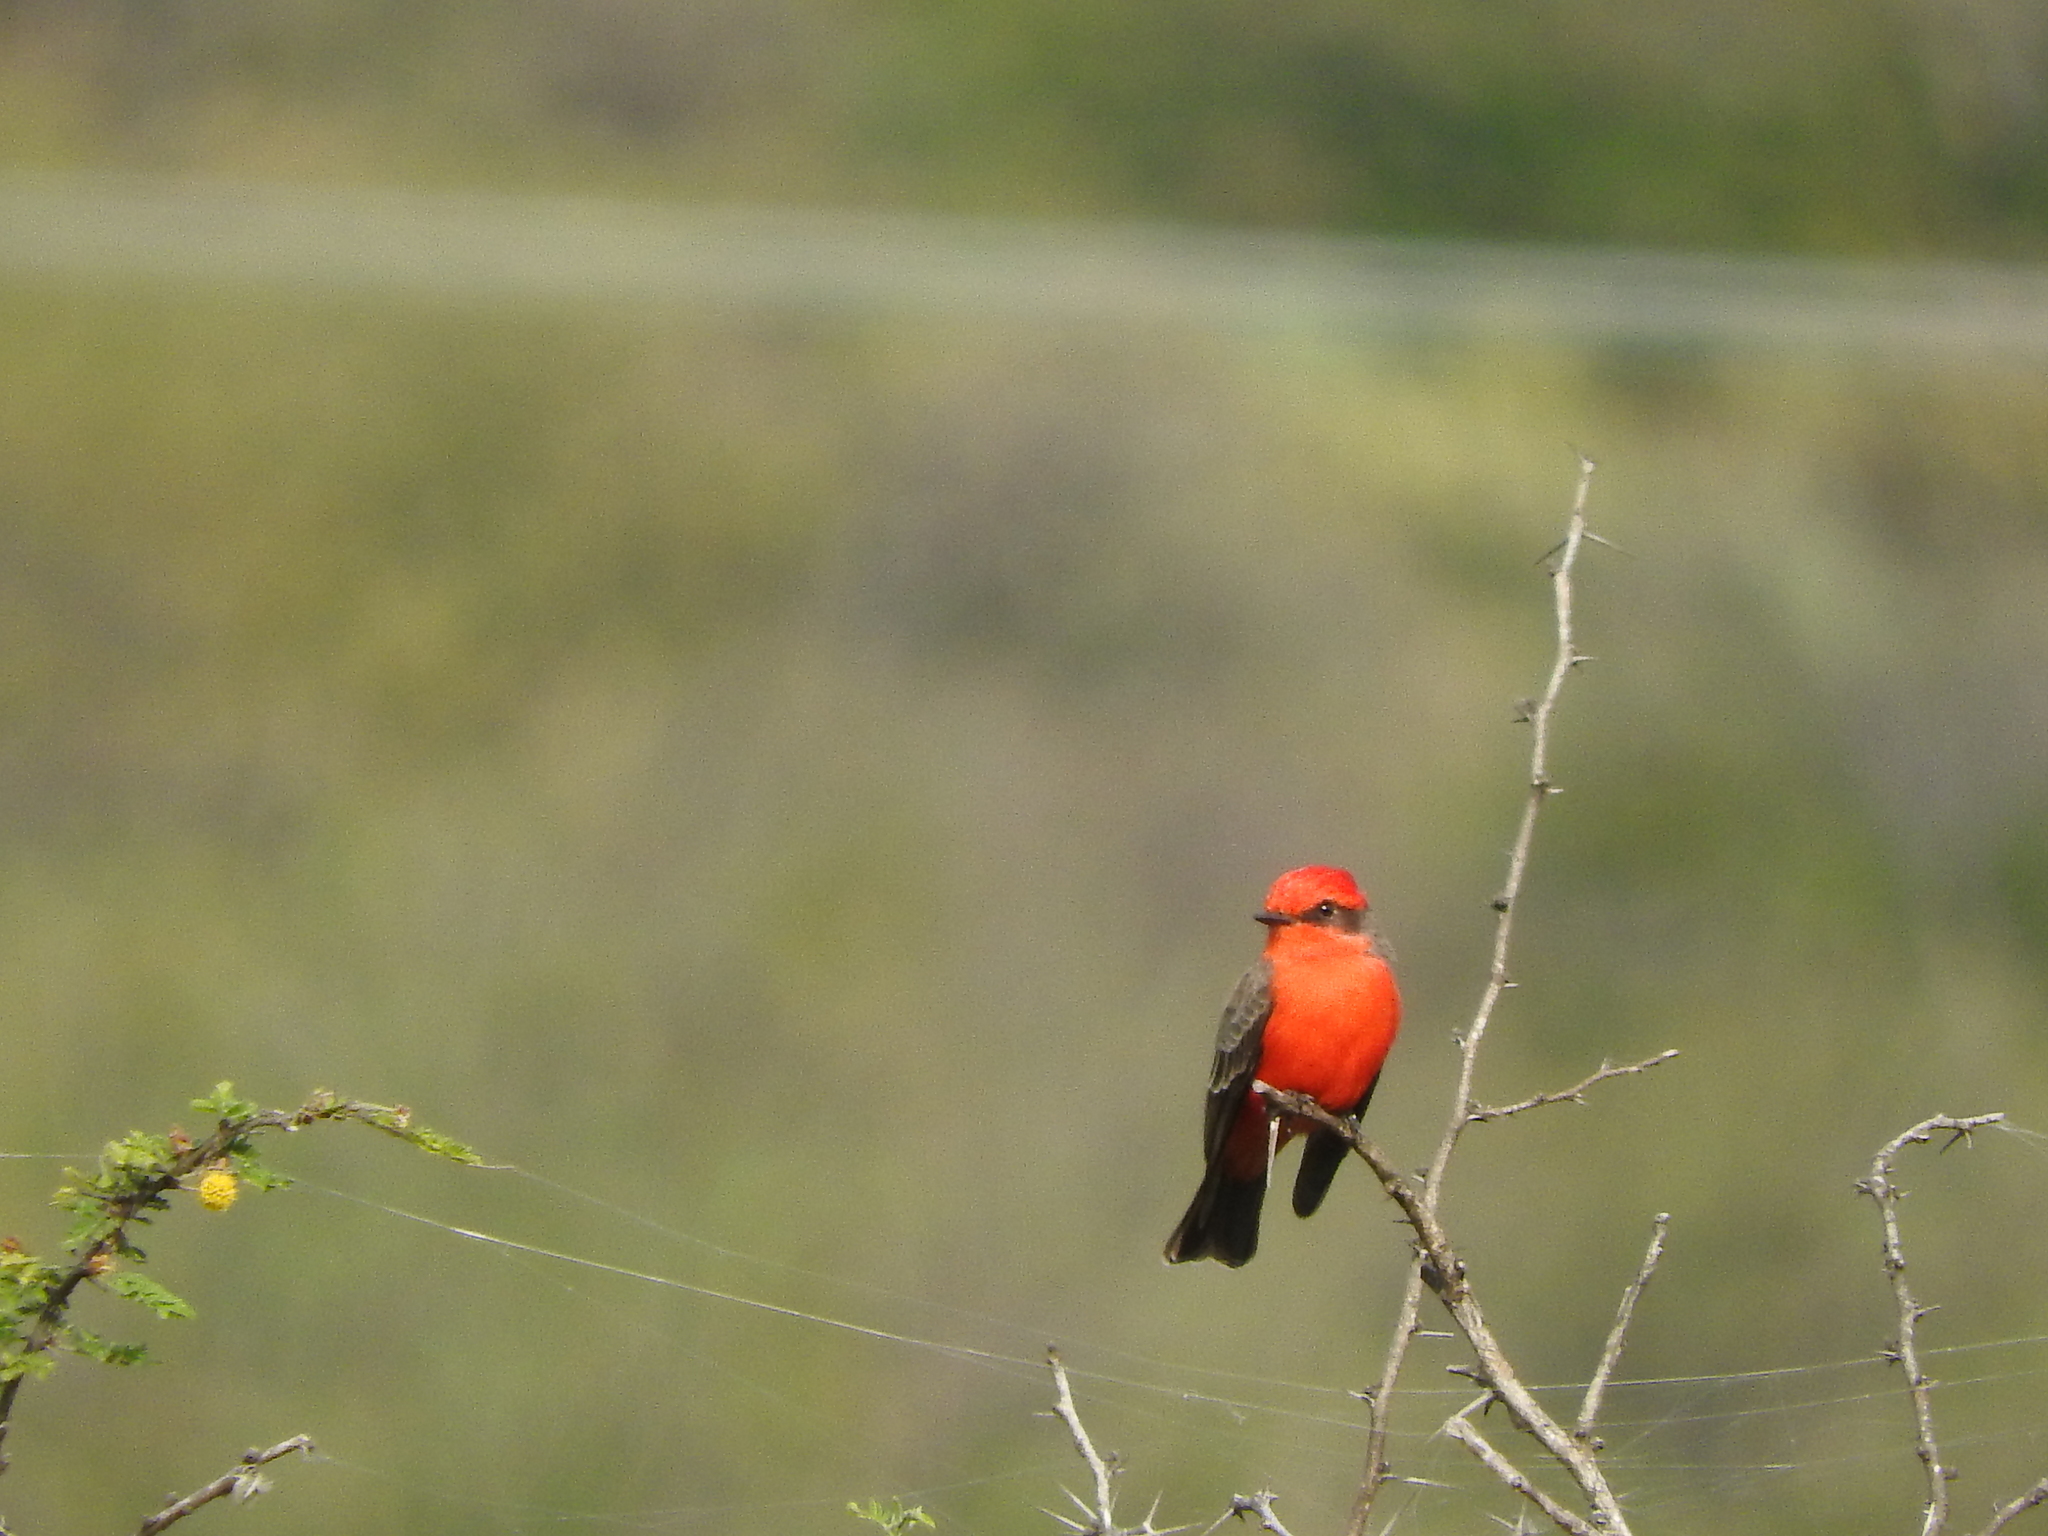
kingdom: Animalia
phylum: Chordata
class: Aves
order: Passeriformes
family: Tyrannidae
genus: Pyrocephalus
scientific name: Pyrocephalus rubinus
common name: Vermilion flycatcher
